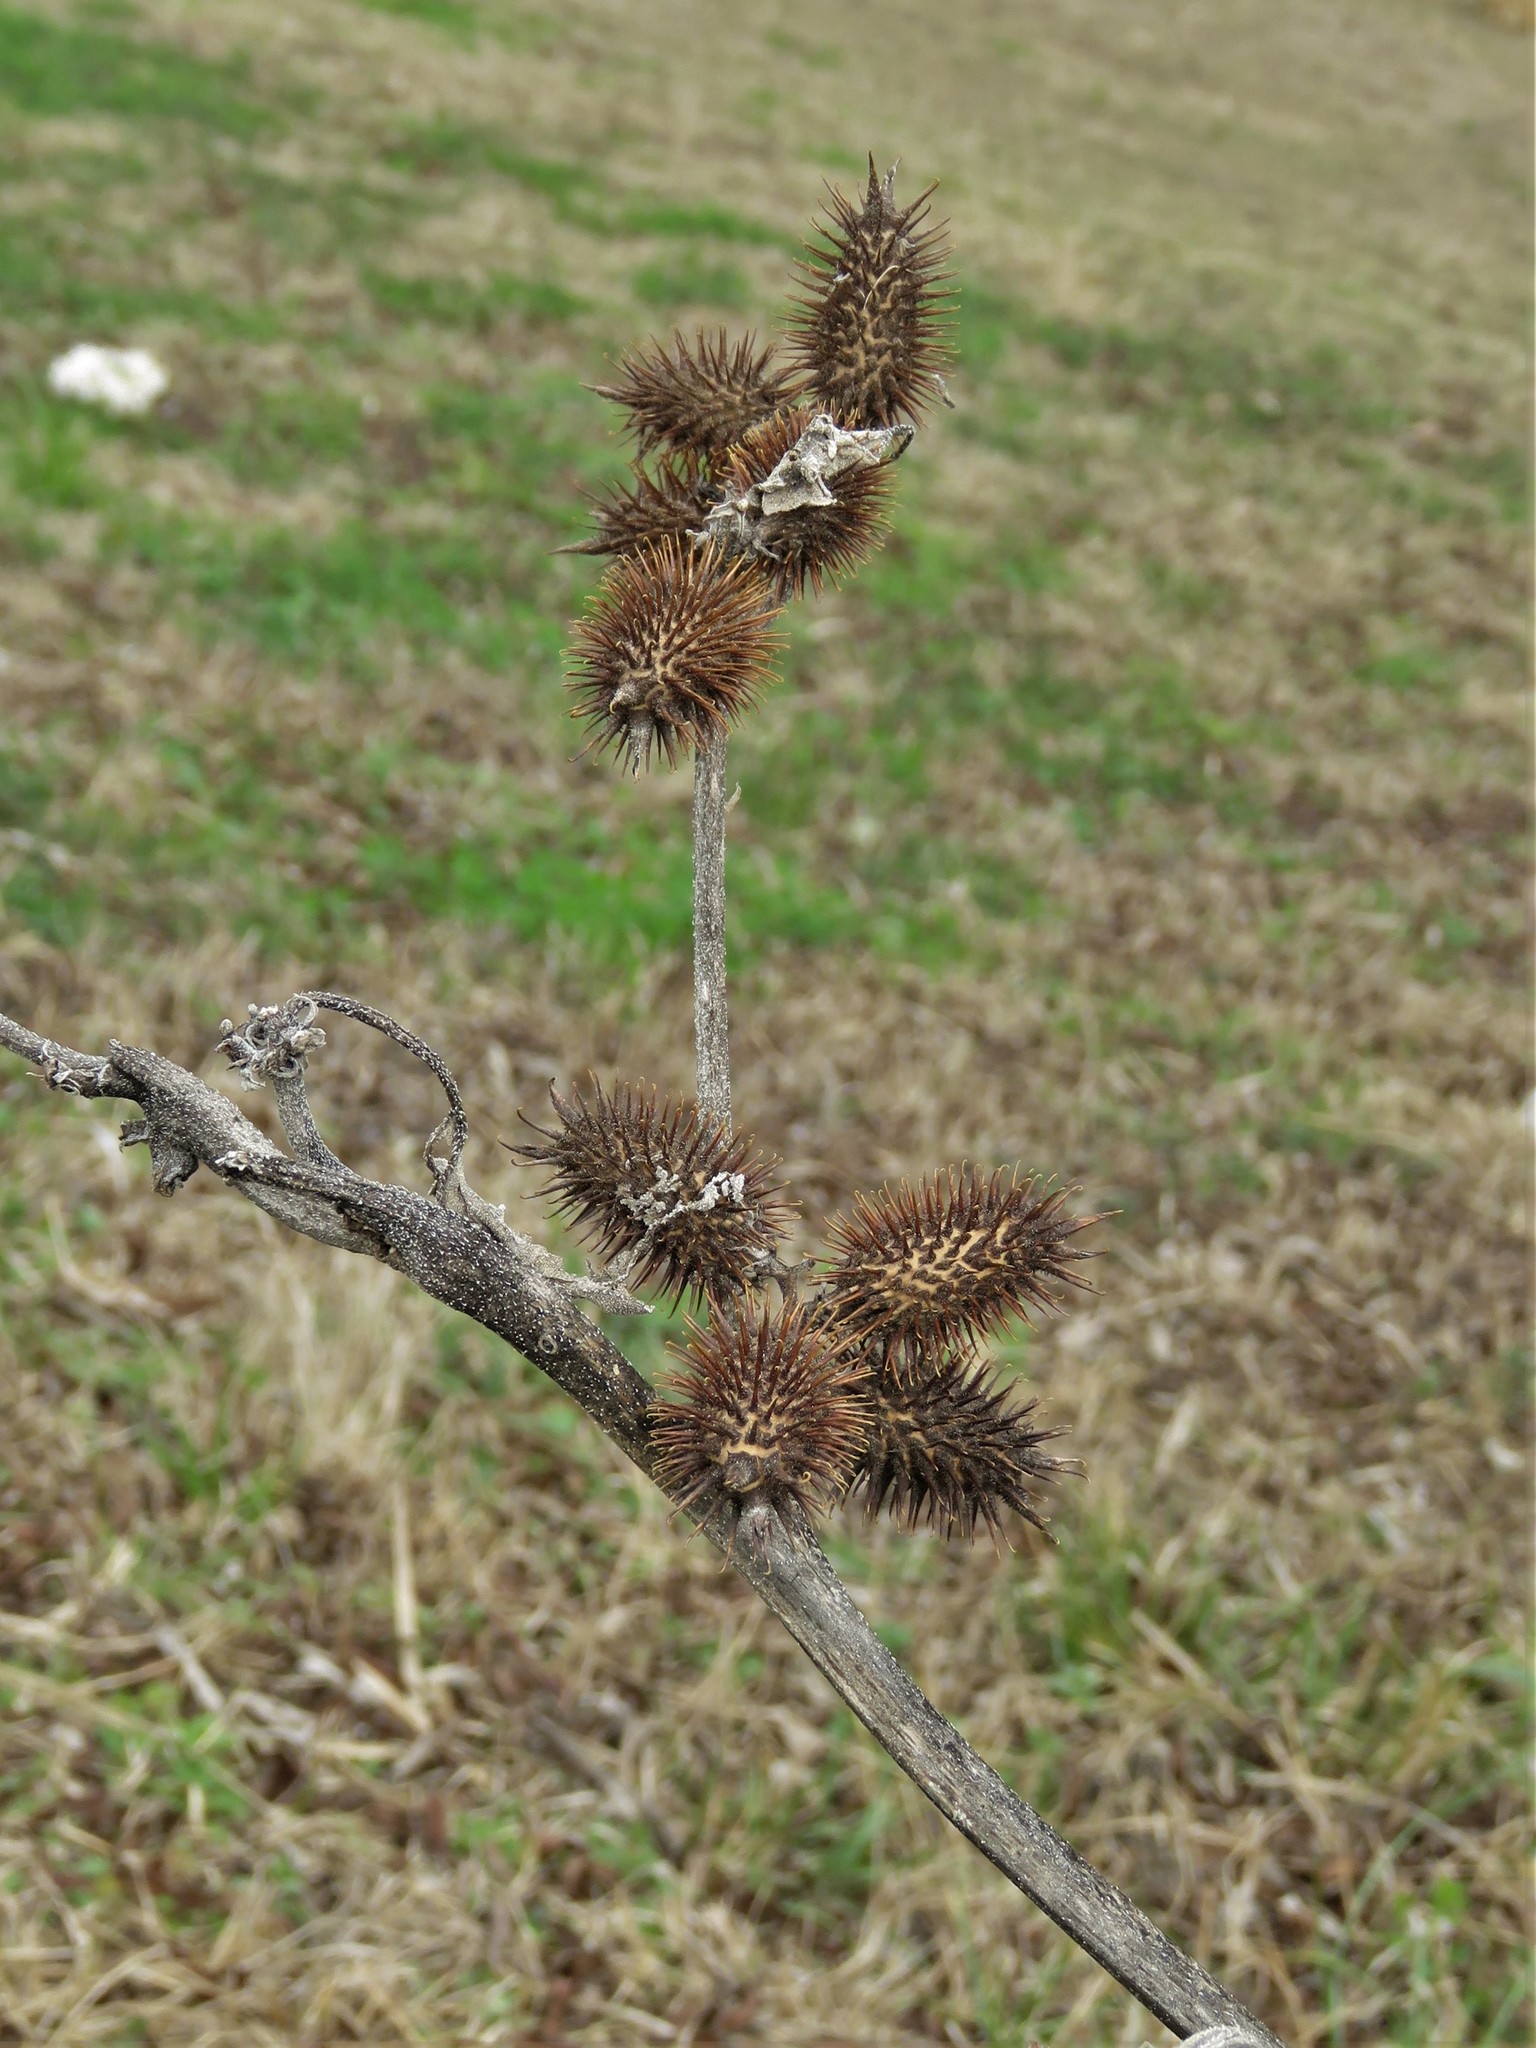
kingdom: Plantae
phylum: Tracheophyta
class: Magnoliopsida
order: Asterales
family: Asteraceae
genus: Xanthium
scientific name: Xanthium strumarium
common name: Rough cocklebur
